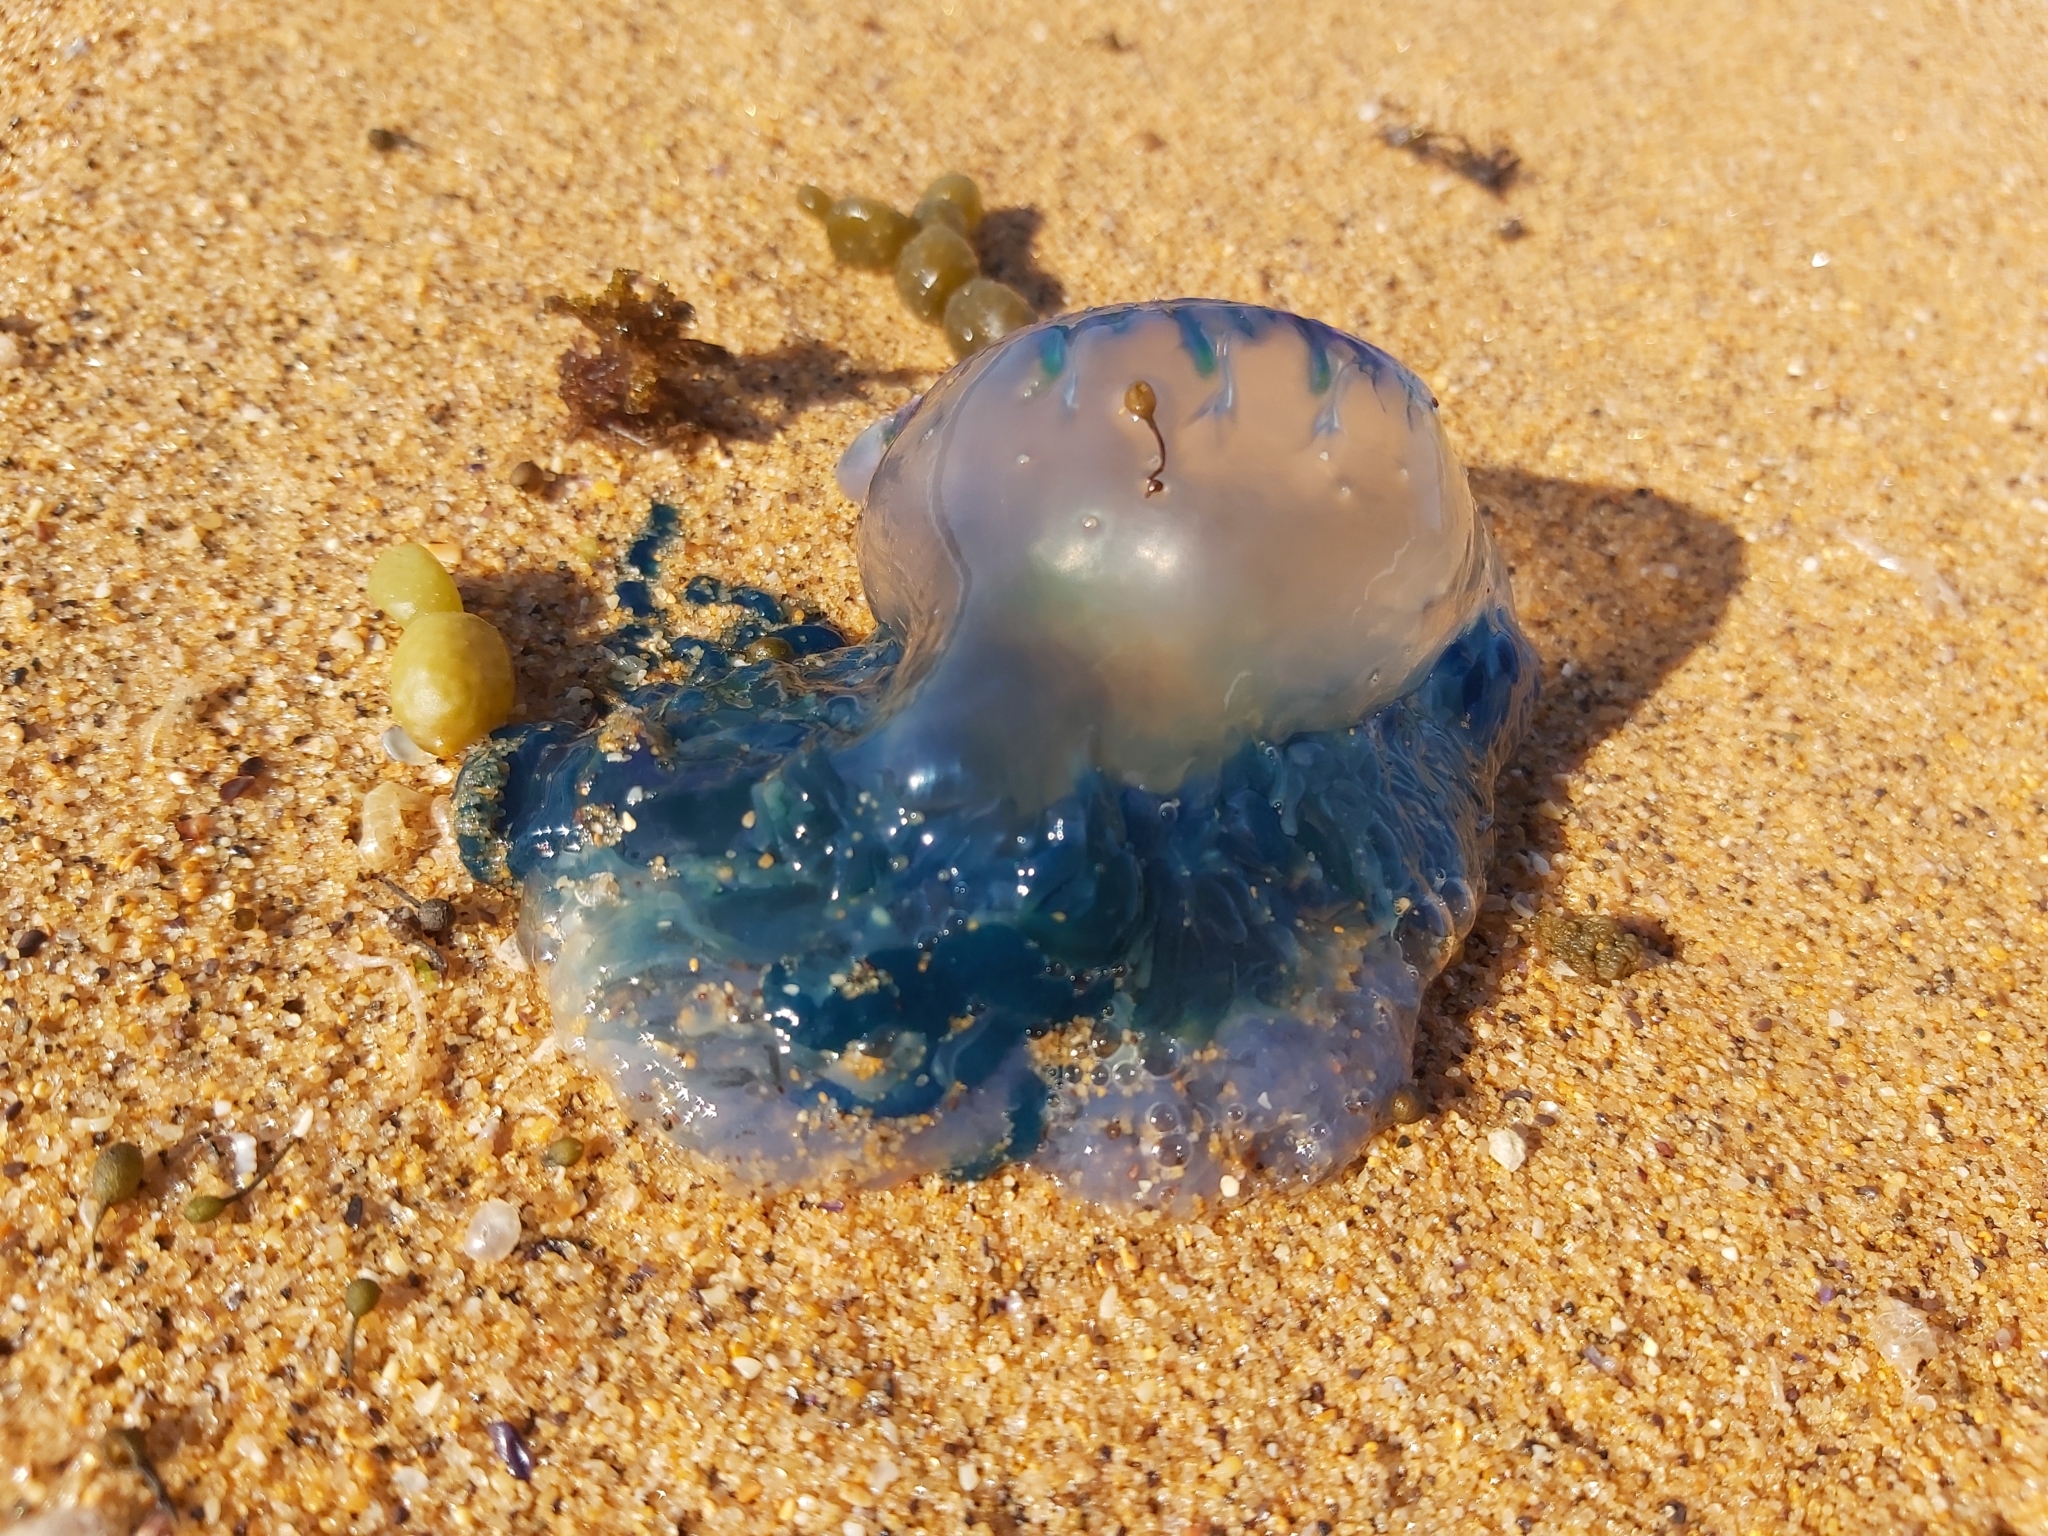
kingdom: Animalia
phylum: Cnidaria
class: Hydrozoa
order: Siphonophorae
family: Physaliidae
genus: Physalia
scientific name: Physalia physalis
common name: Portuguese man-of-war
